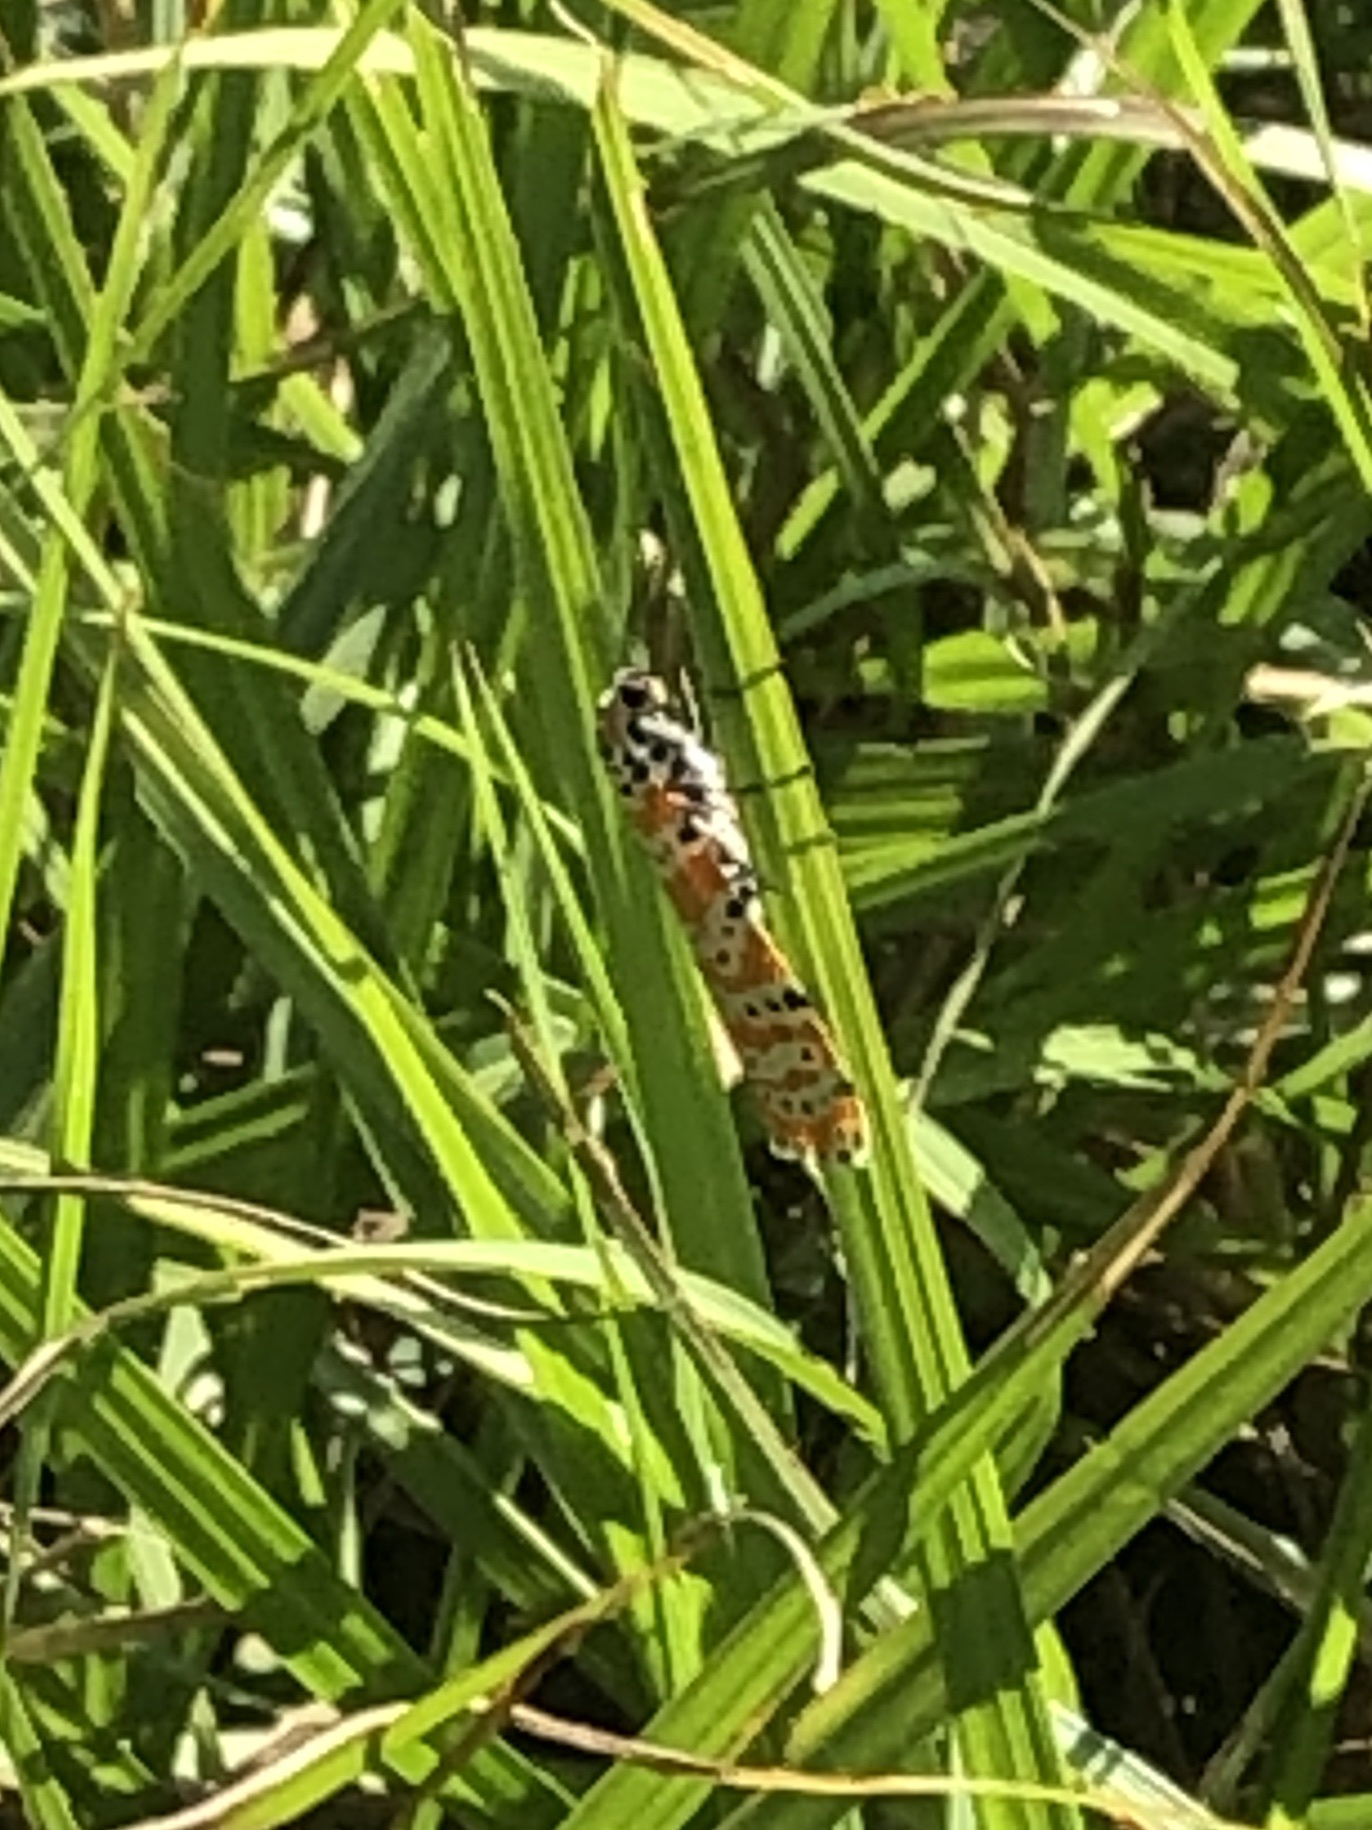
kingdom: Animalia
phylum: Arthropoda
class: Insecta
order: Lepidoptera
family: Erebidae
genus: Utetheisa
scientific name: Utetheisa ornatrix
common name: Beautiful utetheisa
